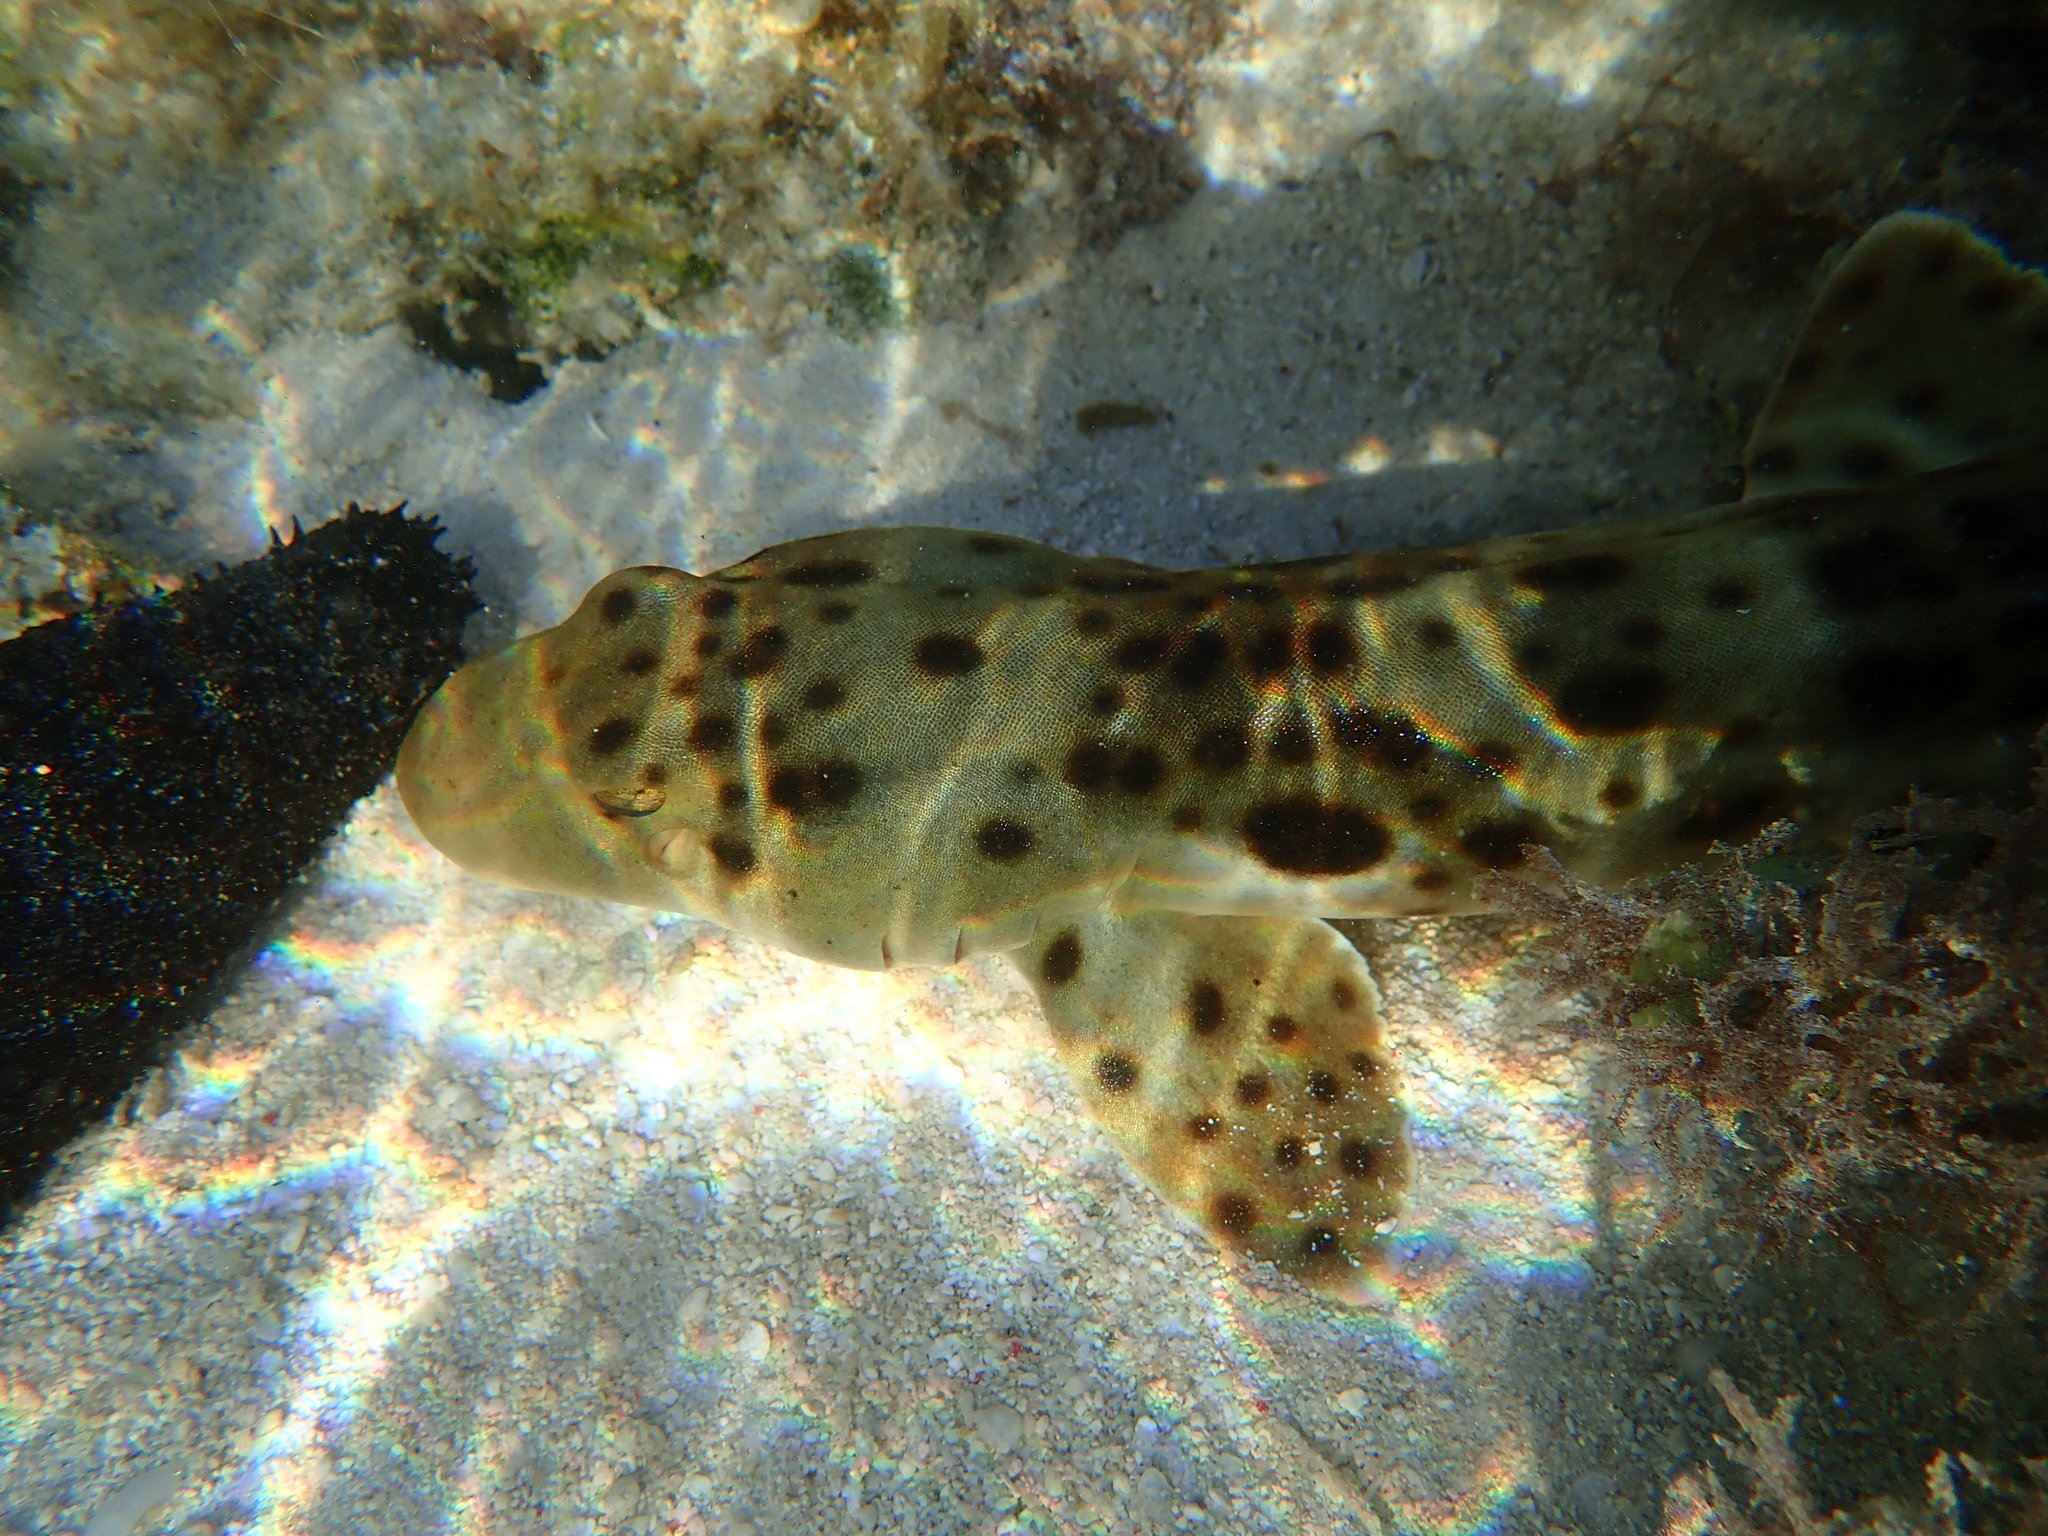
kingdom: Animalia
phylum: Chordata
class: Elasmobranchii
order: Orectolobiformes
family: Hemiscylliidae
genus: Hemiscyllium
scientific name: Hemiscyllium ocellatum
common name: Epaulette shark
